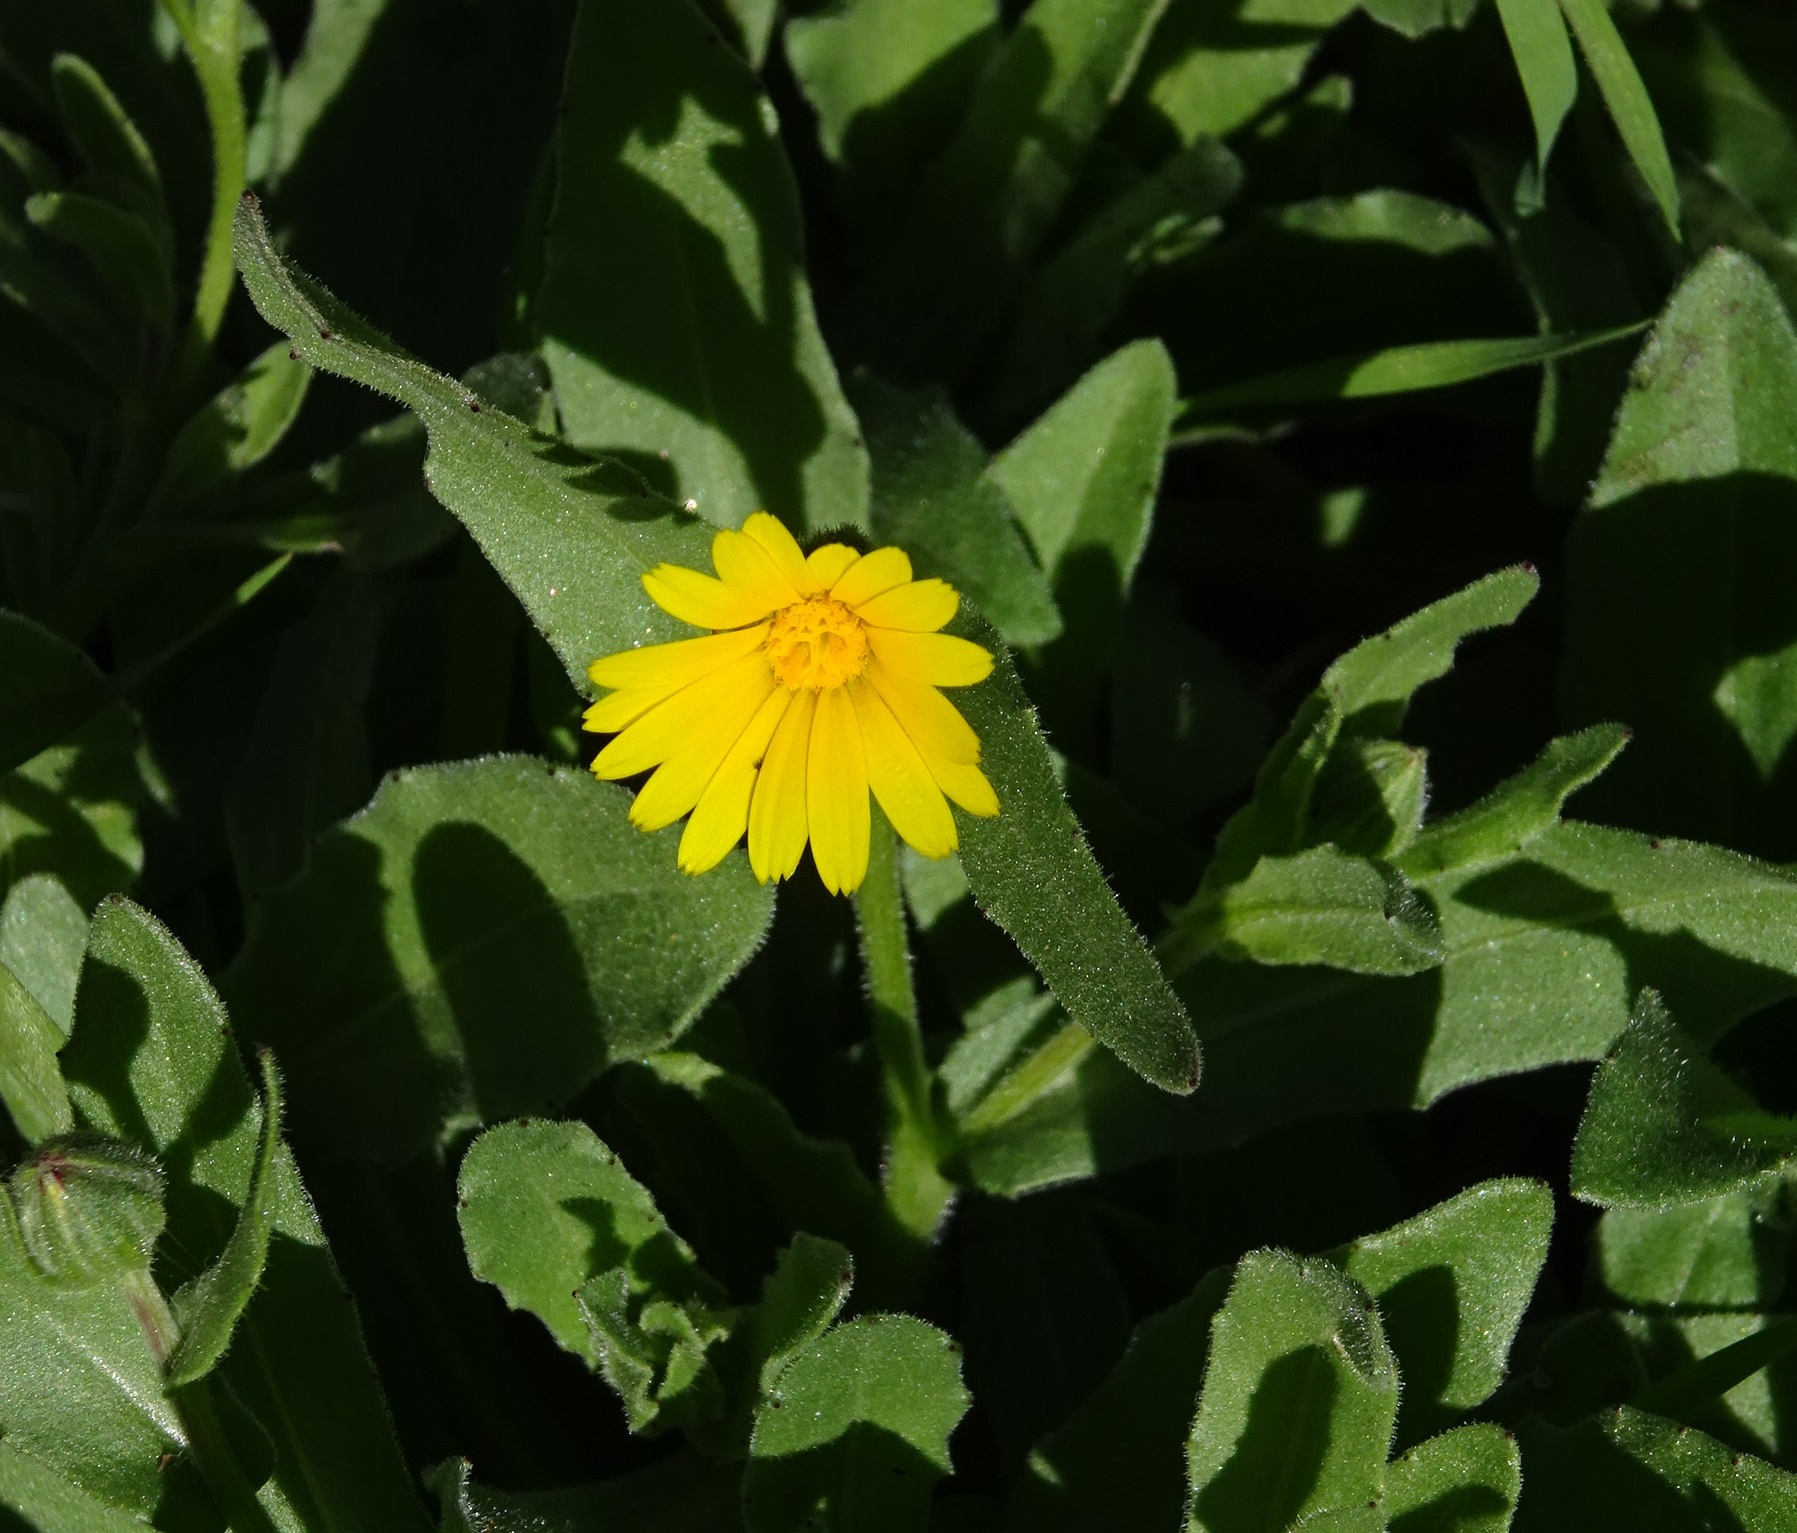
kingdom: Plantae
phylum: Tracheophyta
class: Magnoliopsida
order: Asterales
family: Asteraceae
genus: Calendula
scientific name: Calendula arvensis
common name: Field marigold
